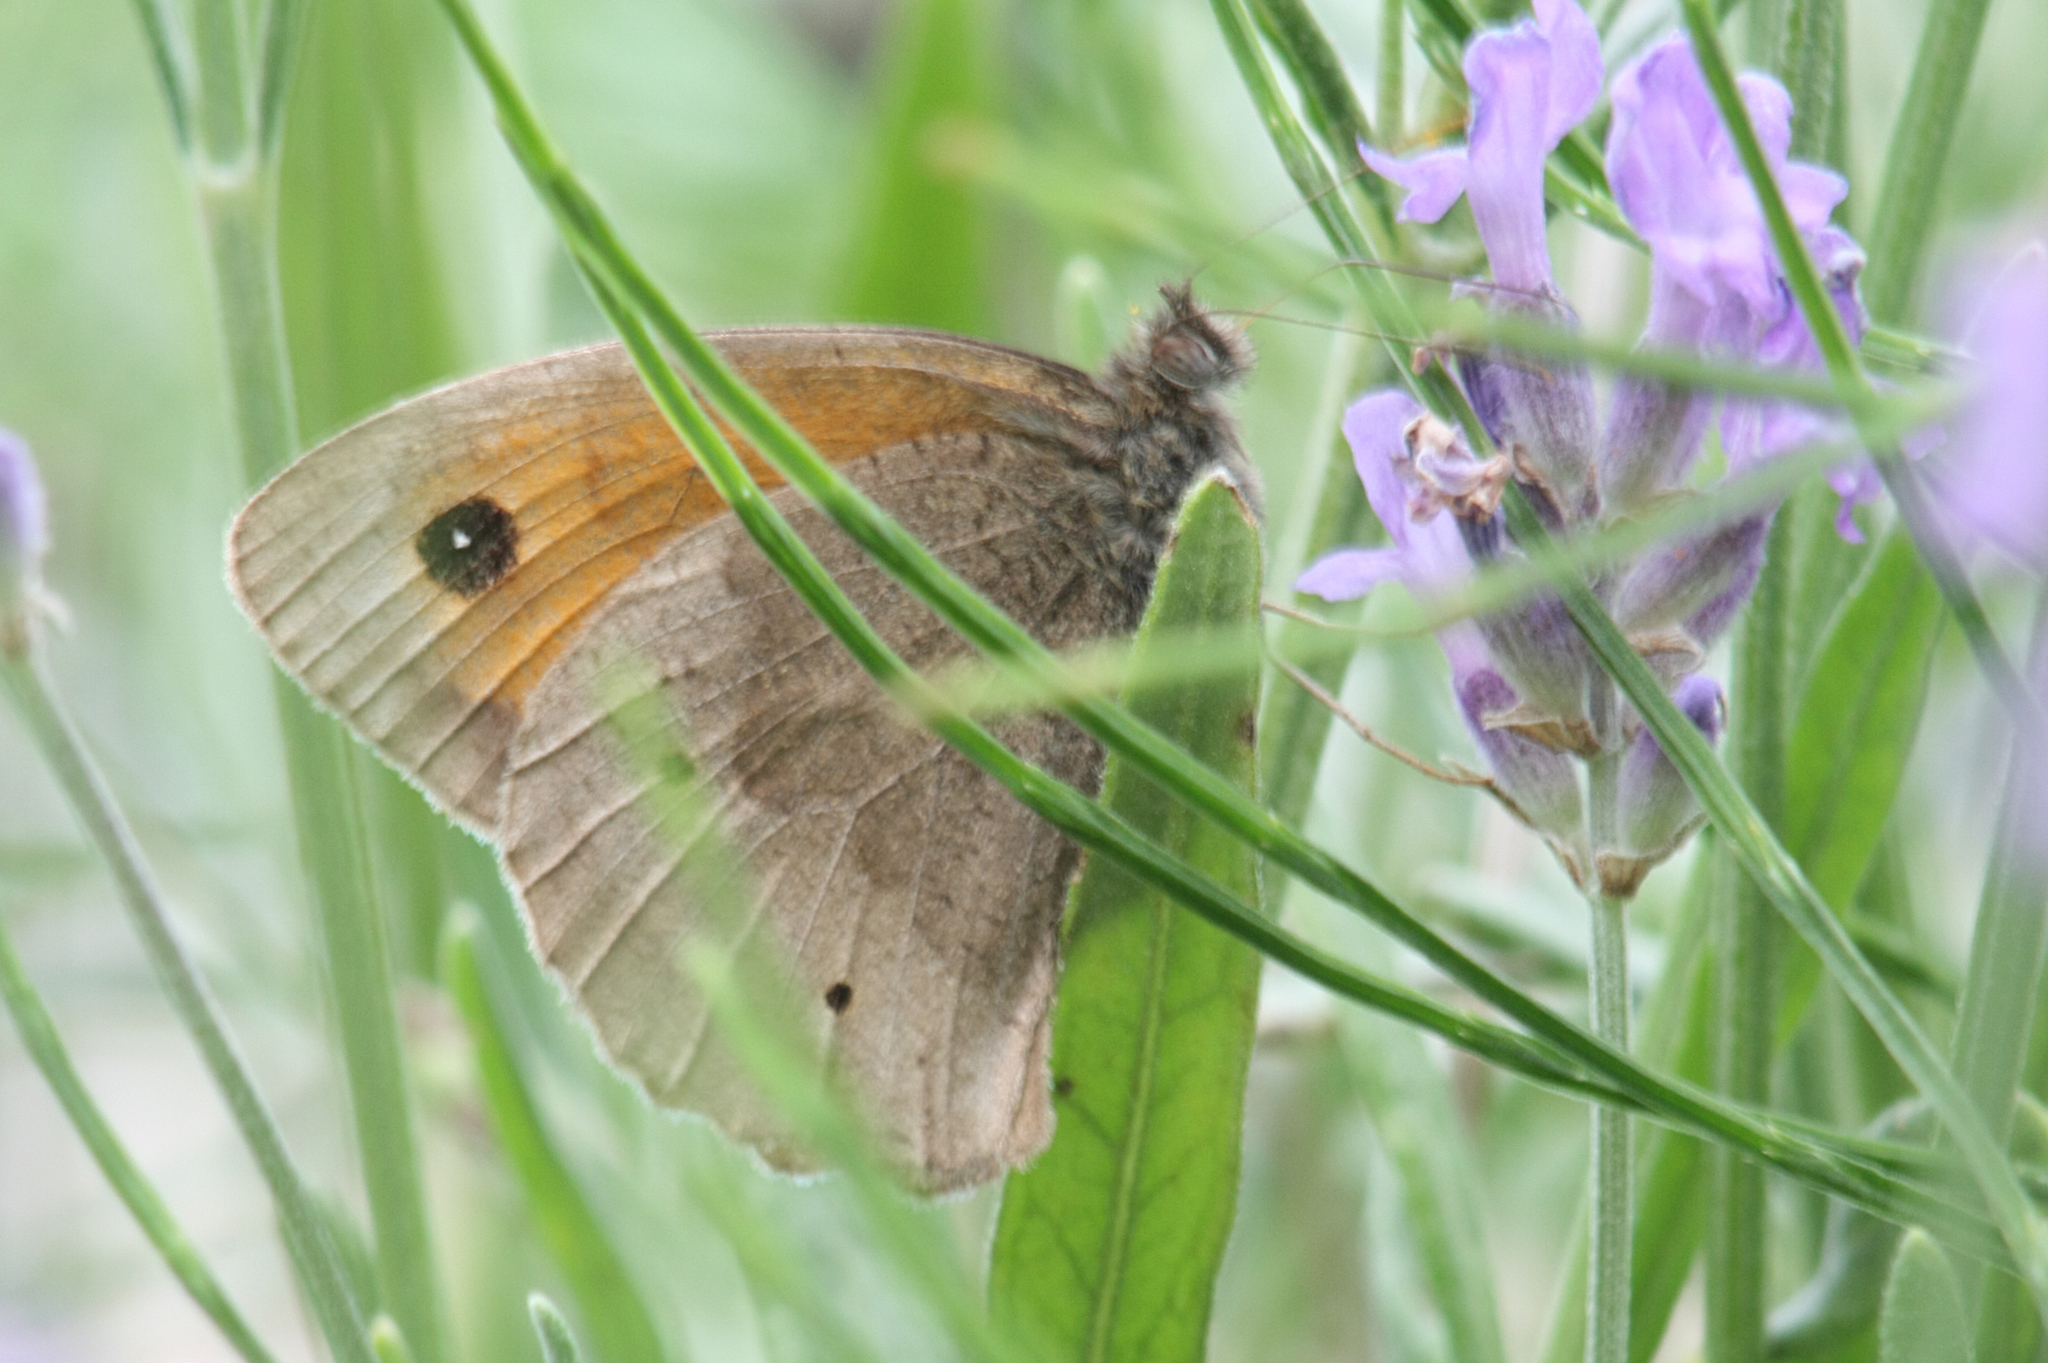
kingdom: Animalia
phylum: Arthropoda
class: Insecta
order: Lepidoptera
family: Nymphalidae
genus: Maniola
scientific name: Maniola jurtina
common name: Meadow brown
